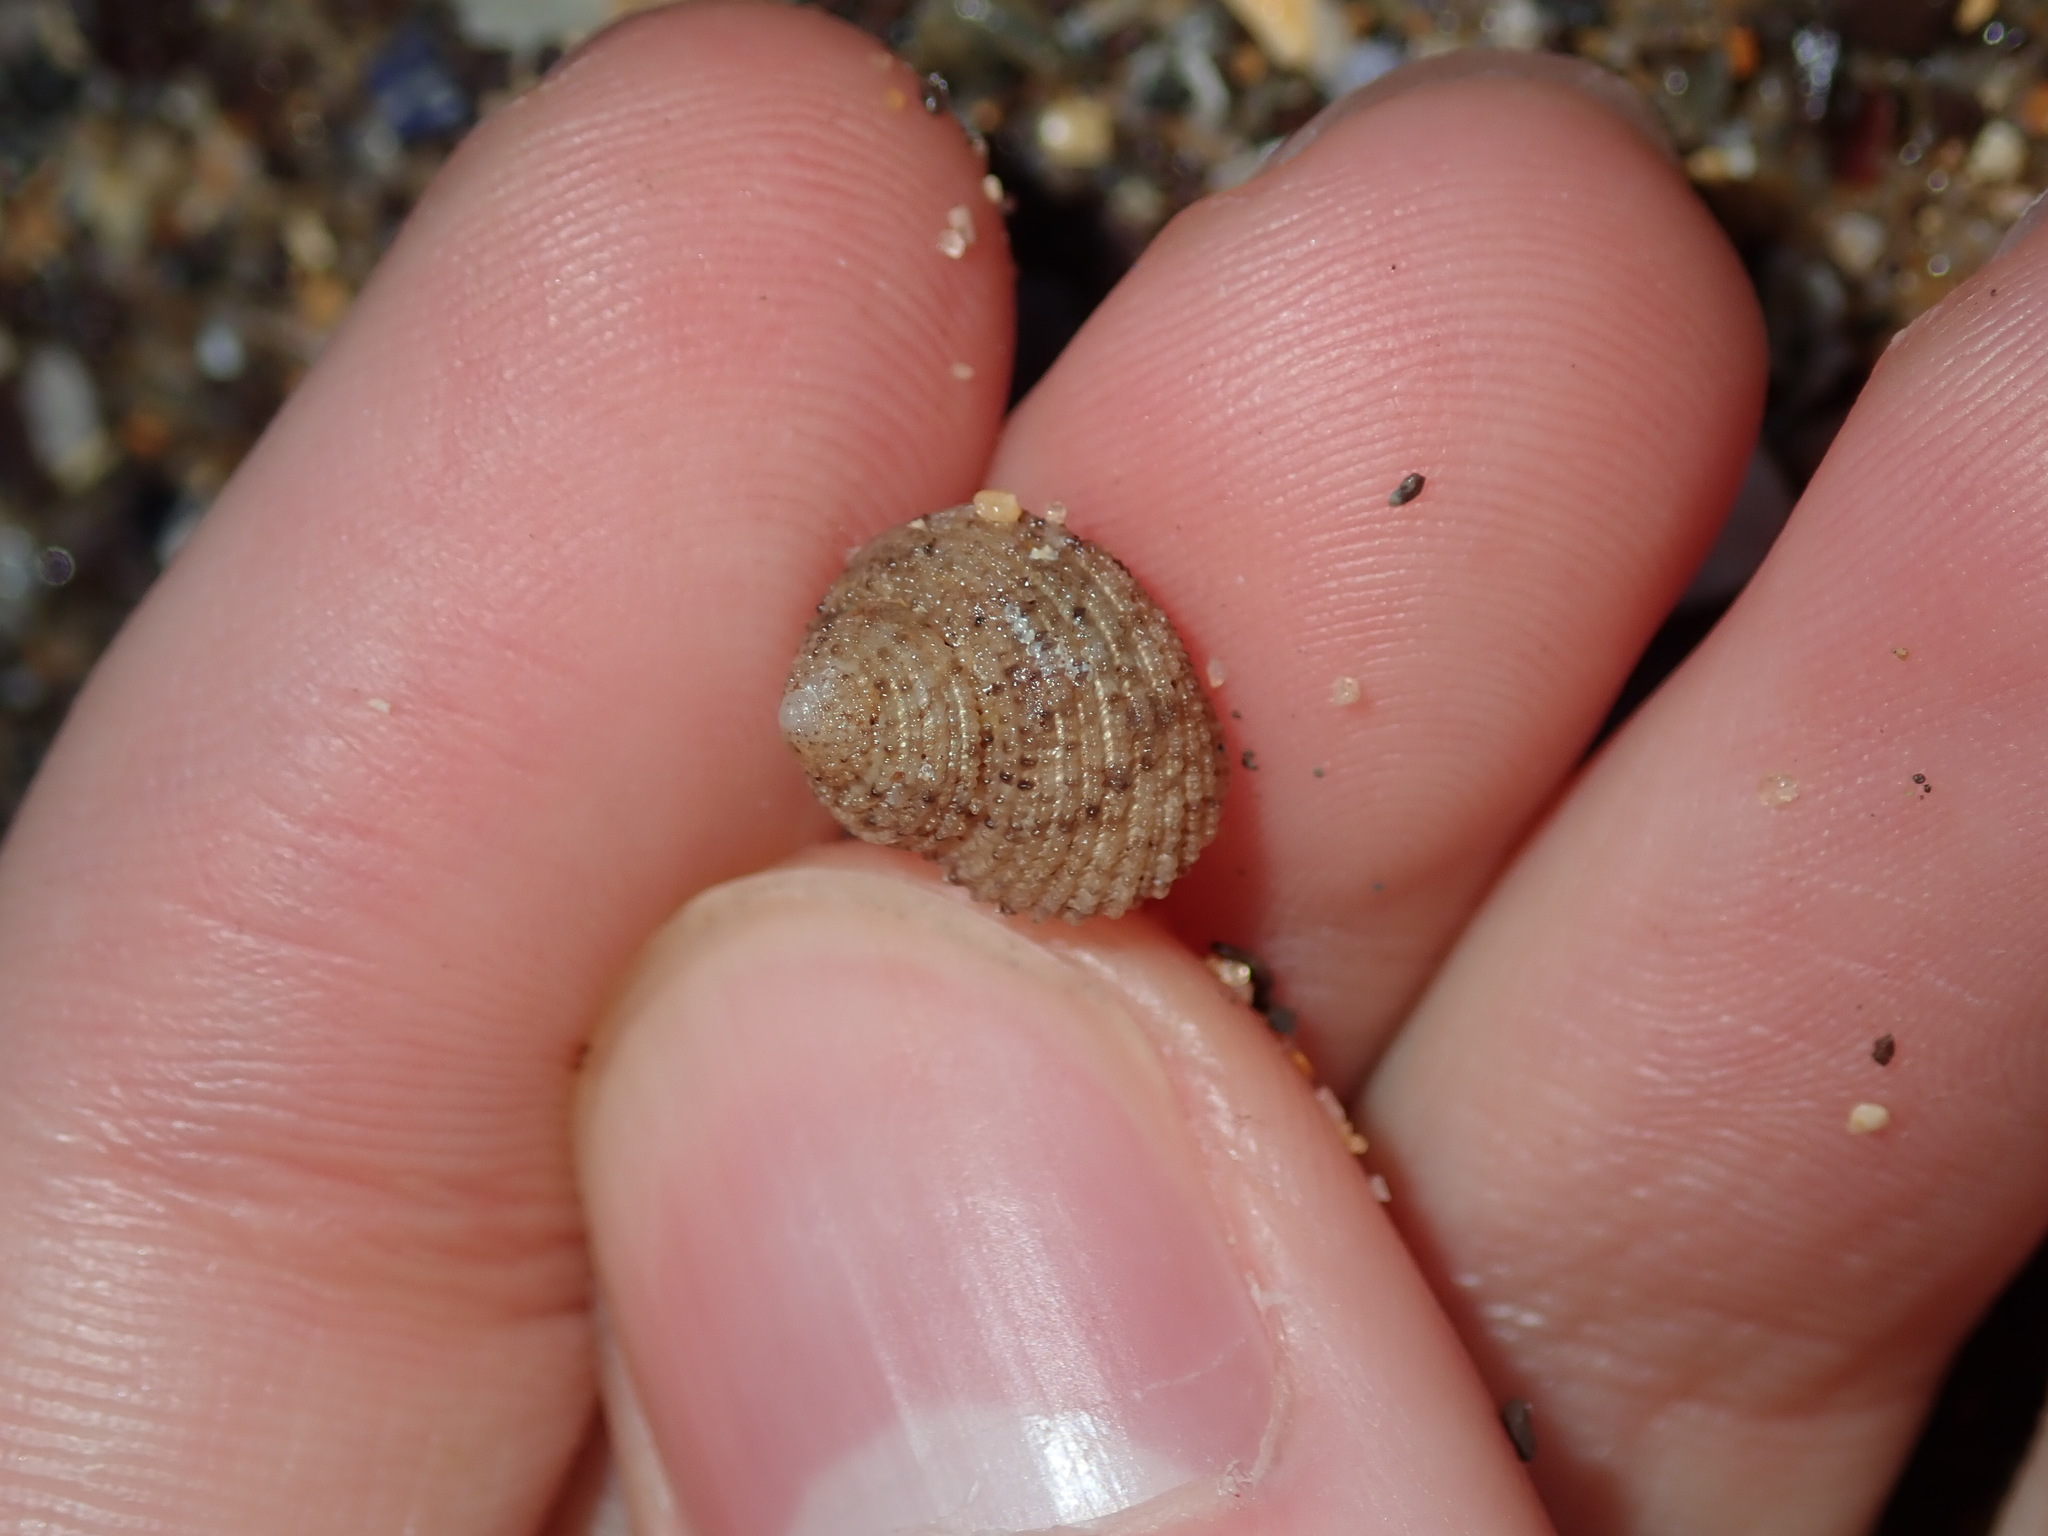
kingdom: Animalia
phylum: Mollusca
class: Gastropoda
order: Seguenziida
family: Chilodontaidae
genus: Herpetopoma
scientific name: Herpetopoma aspersum
